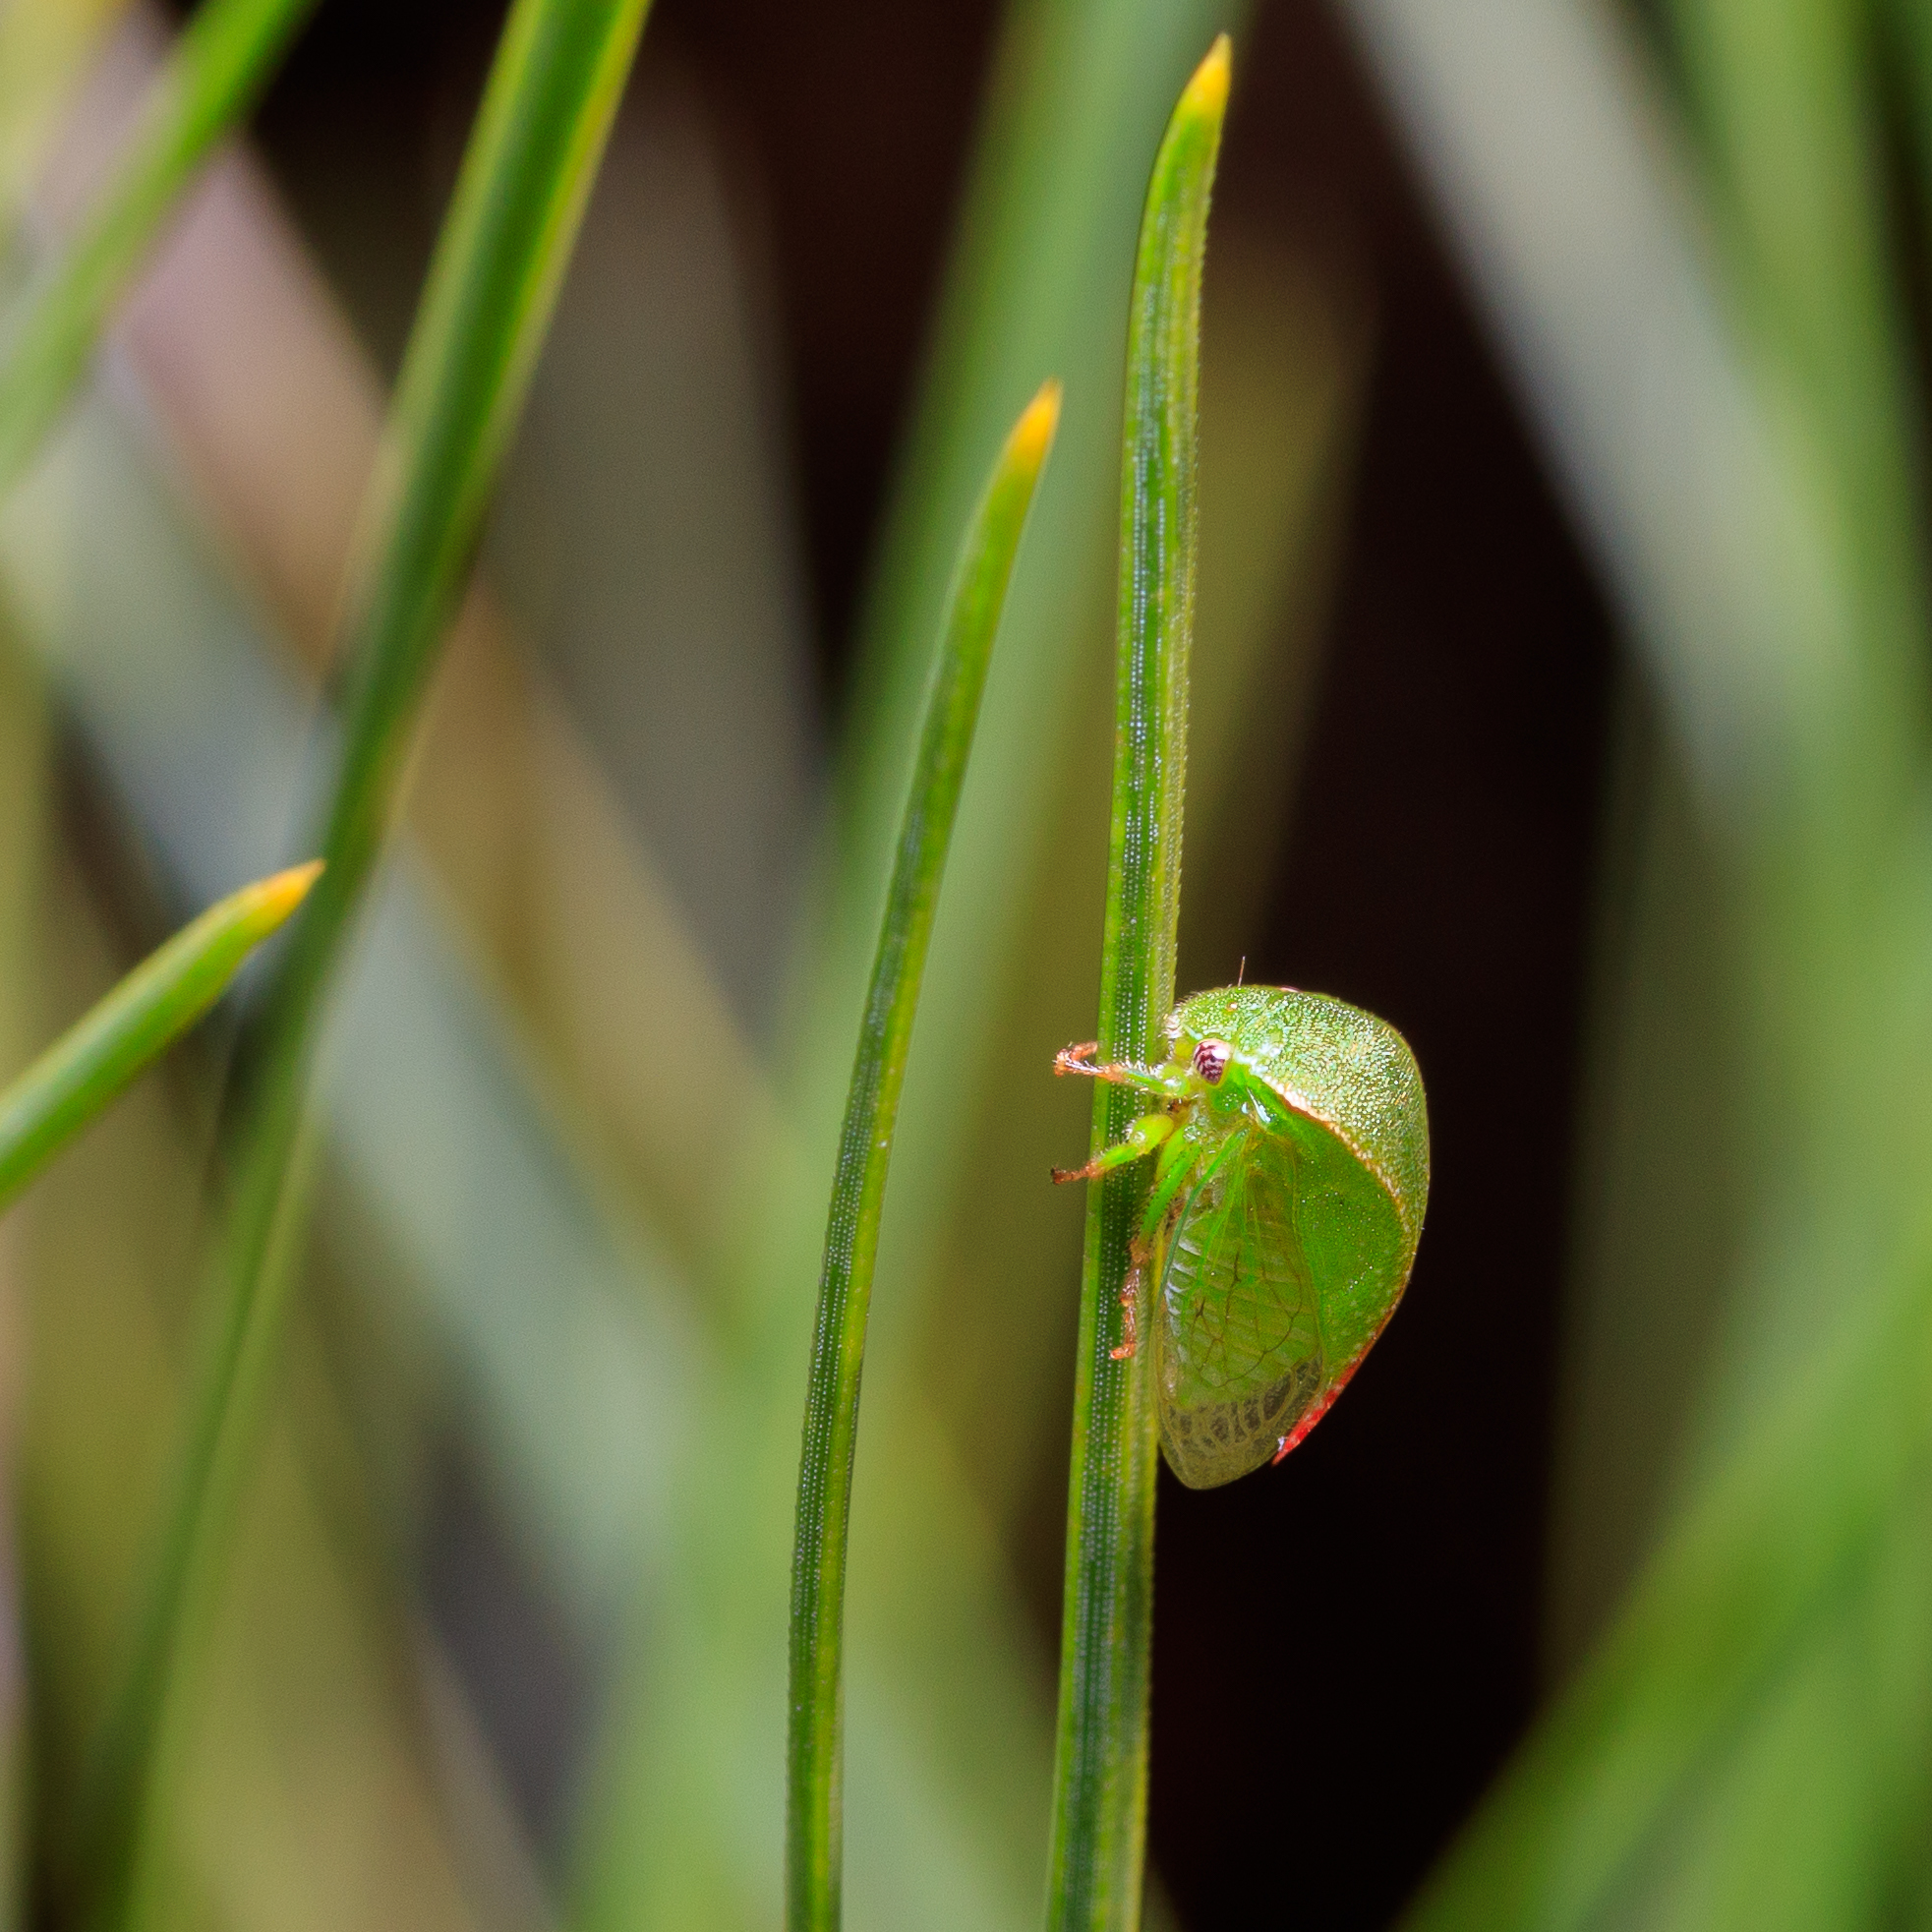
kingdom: Animalia
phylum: Arthropoda
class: Insecta
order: Hemiptera
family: Membracidae
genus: Spissistilus
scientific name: Spissistilus festina
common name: Membracid bug
